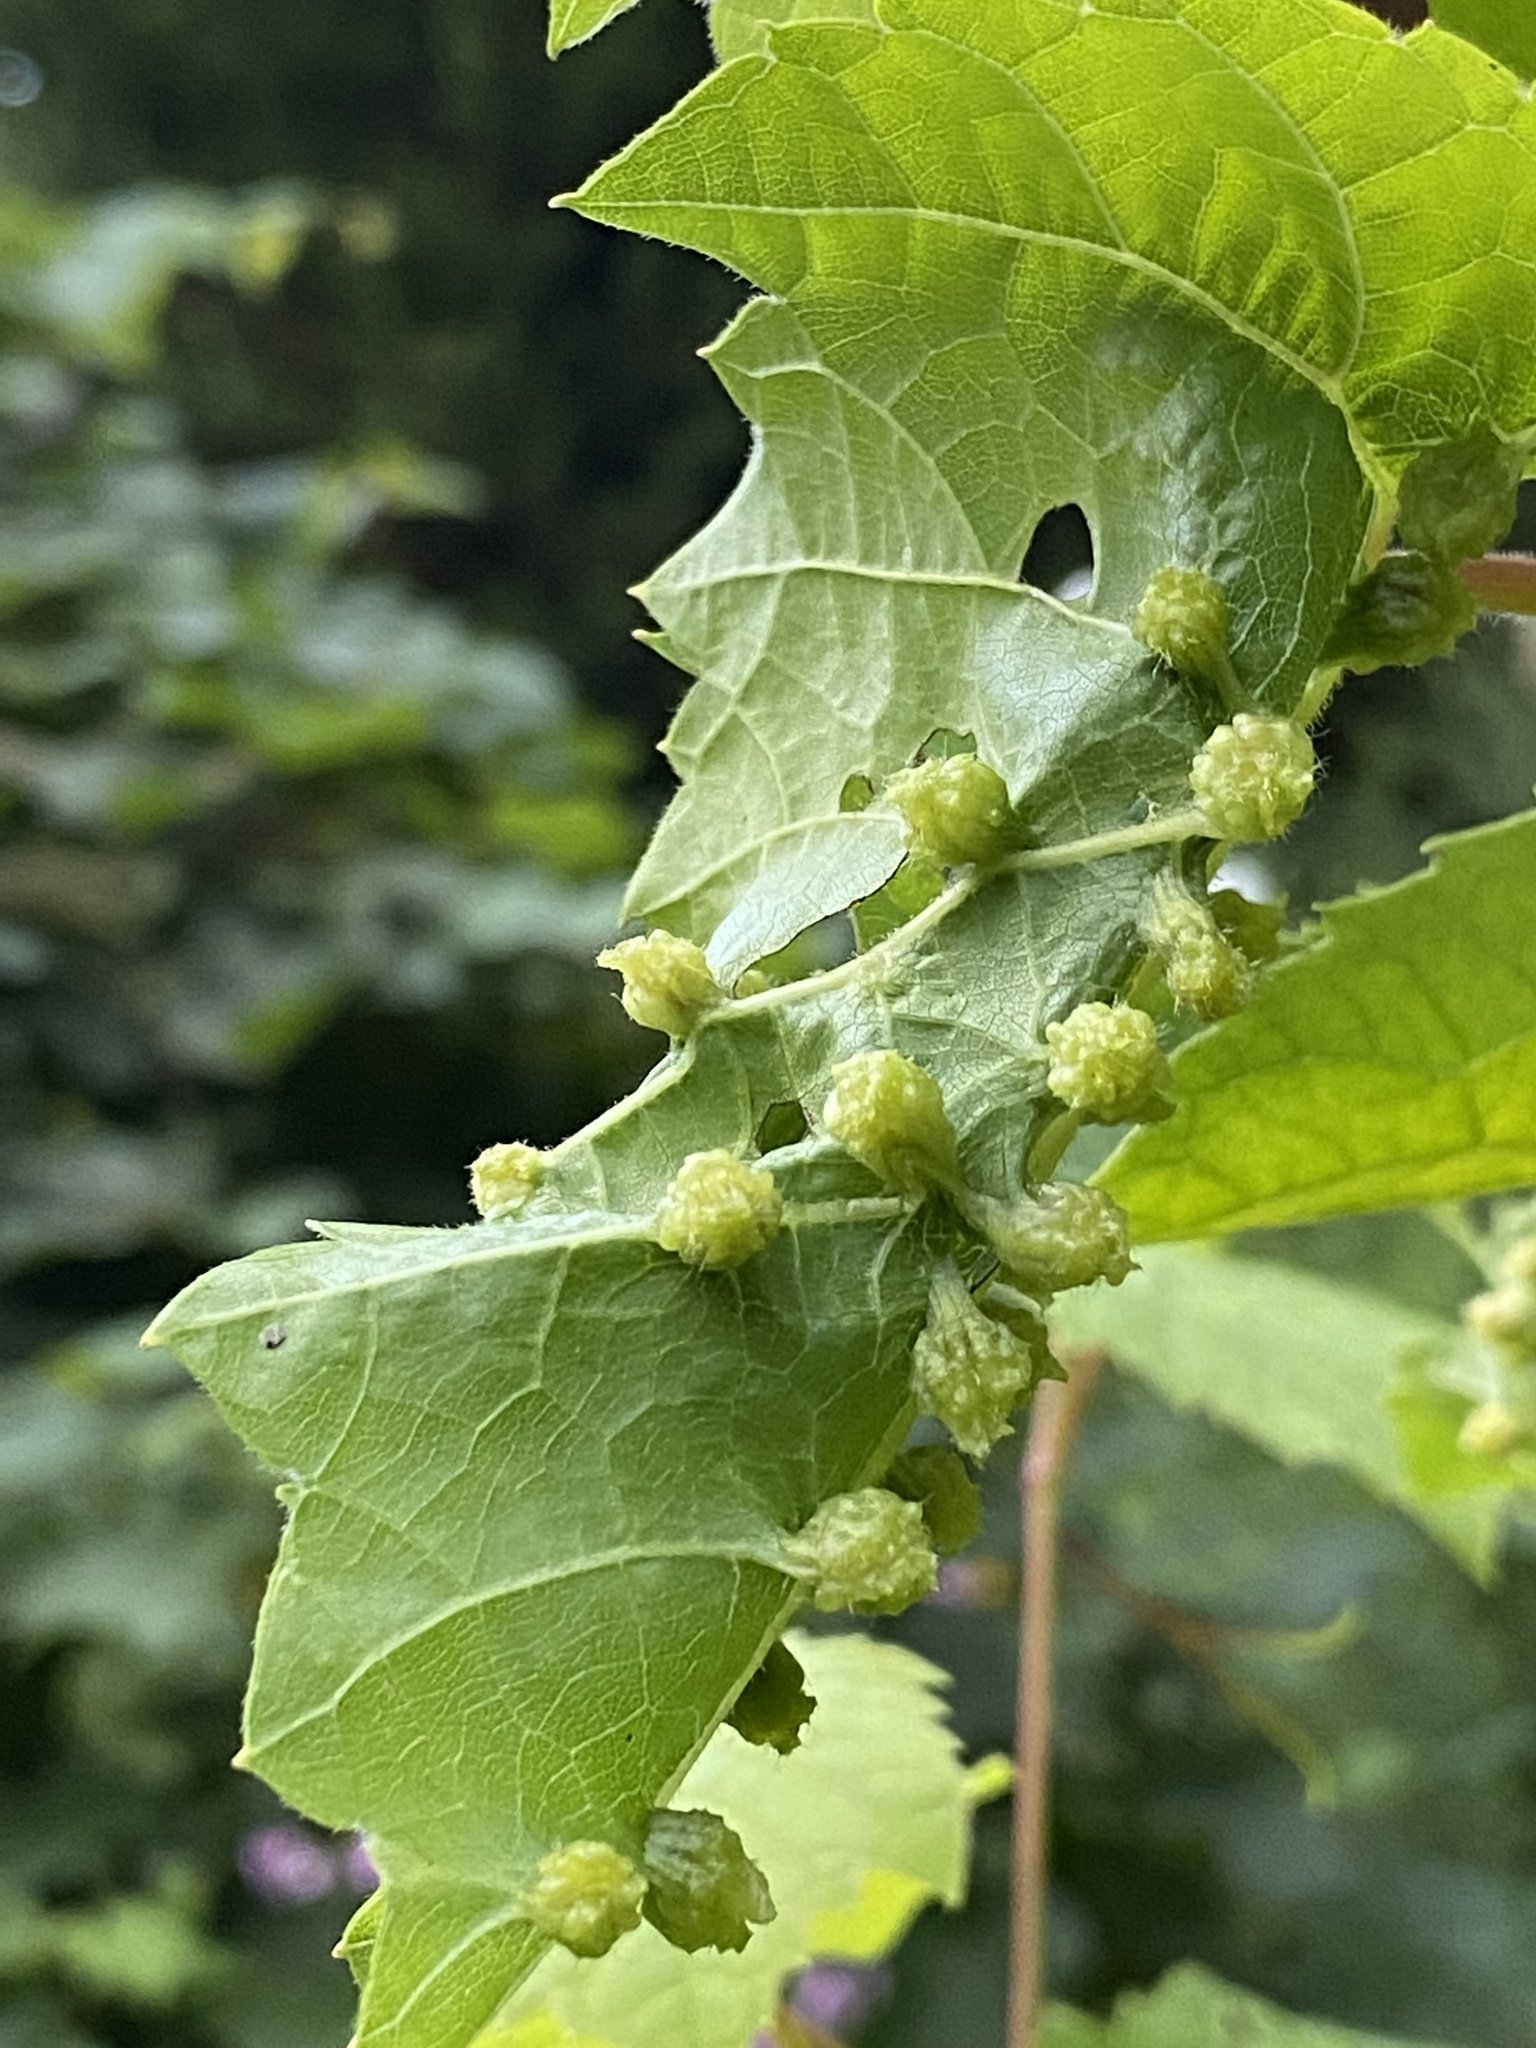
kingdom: Animalia
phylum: Arthropoda
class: Insecta
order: Hemiptera
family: Phylloxeridae
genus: Daktulosphaira
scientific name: Daktulosphaira vitifoliae
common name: Grape phylloxera
